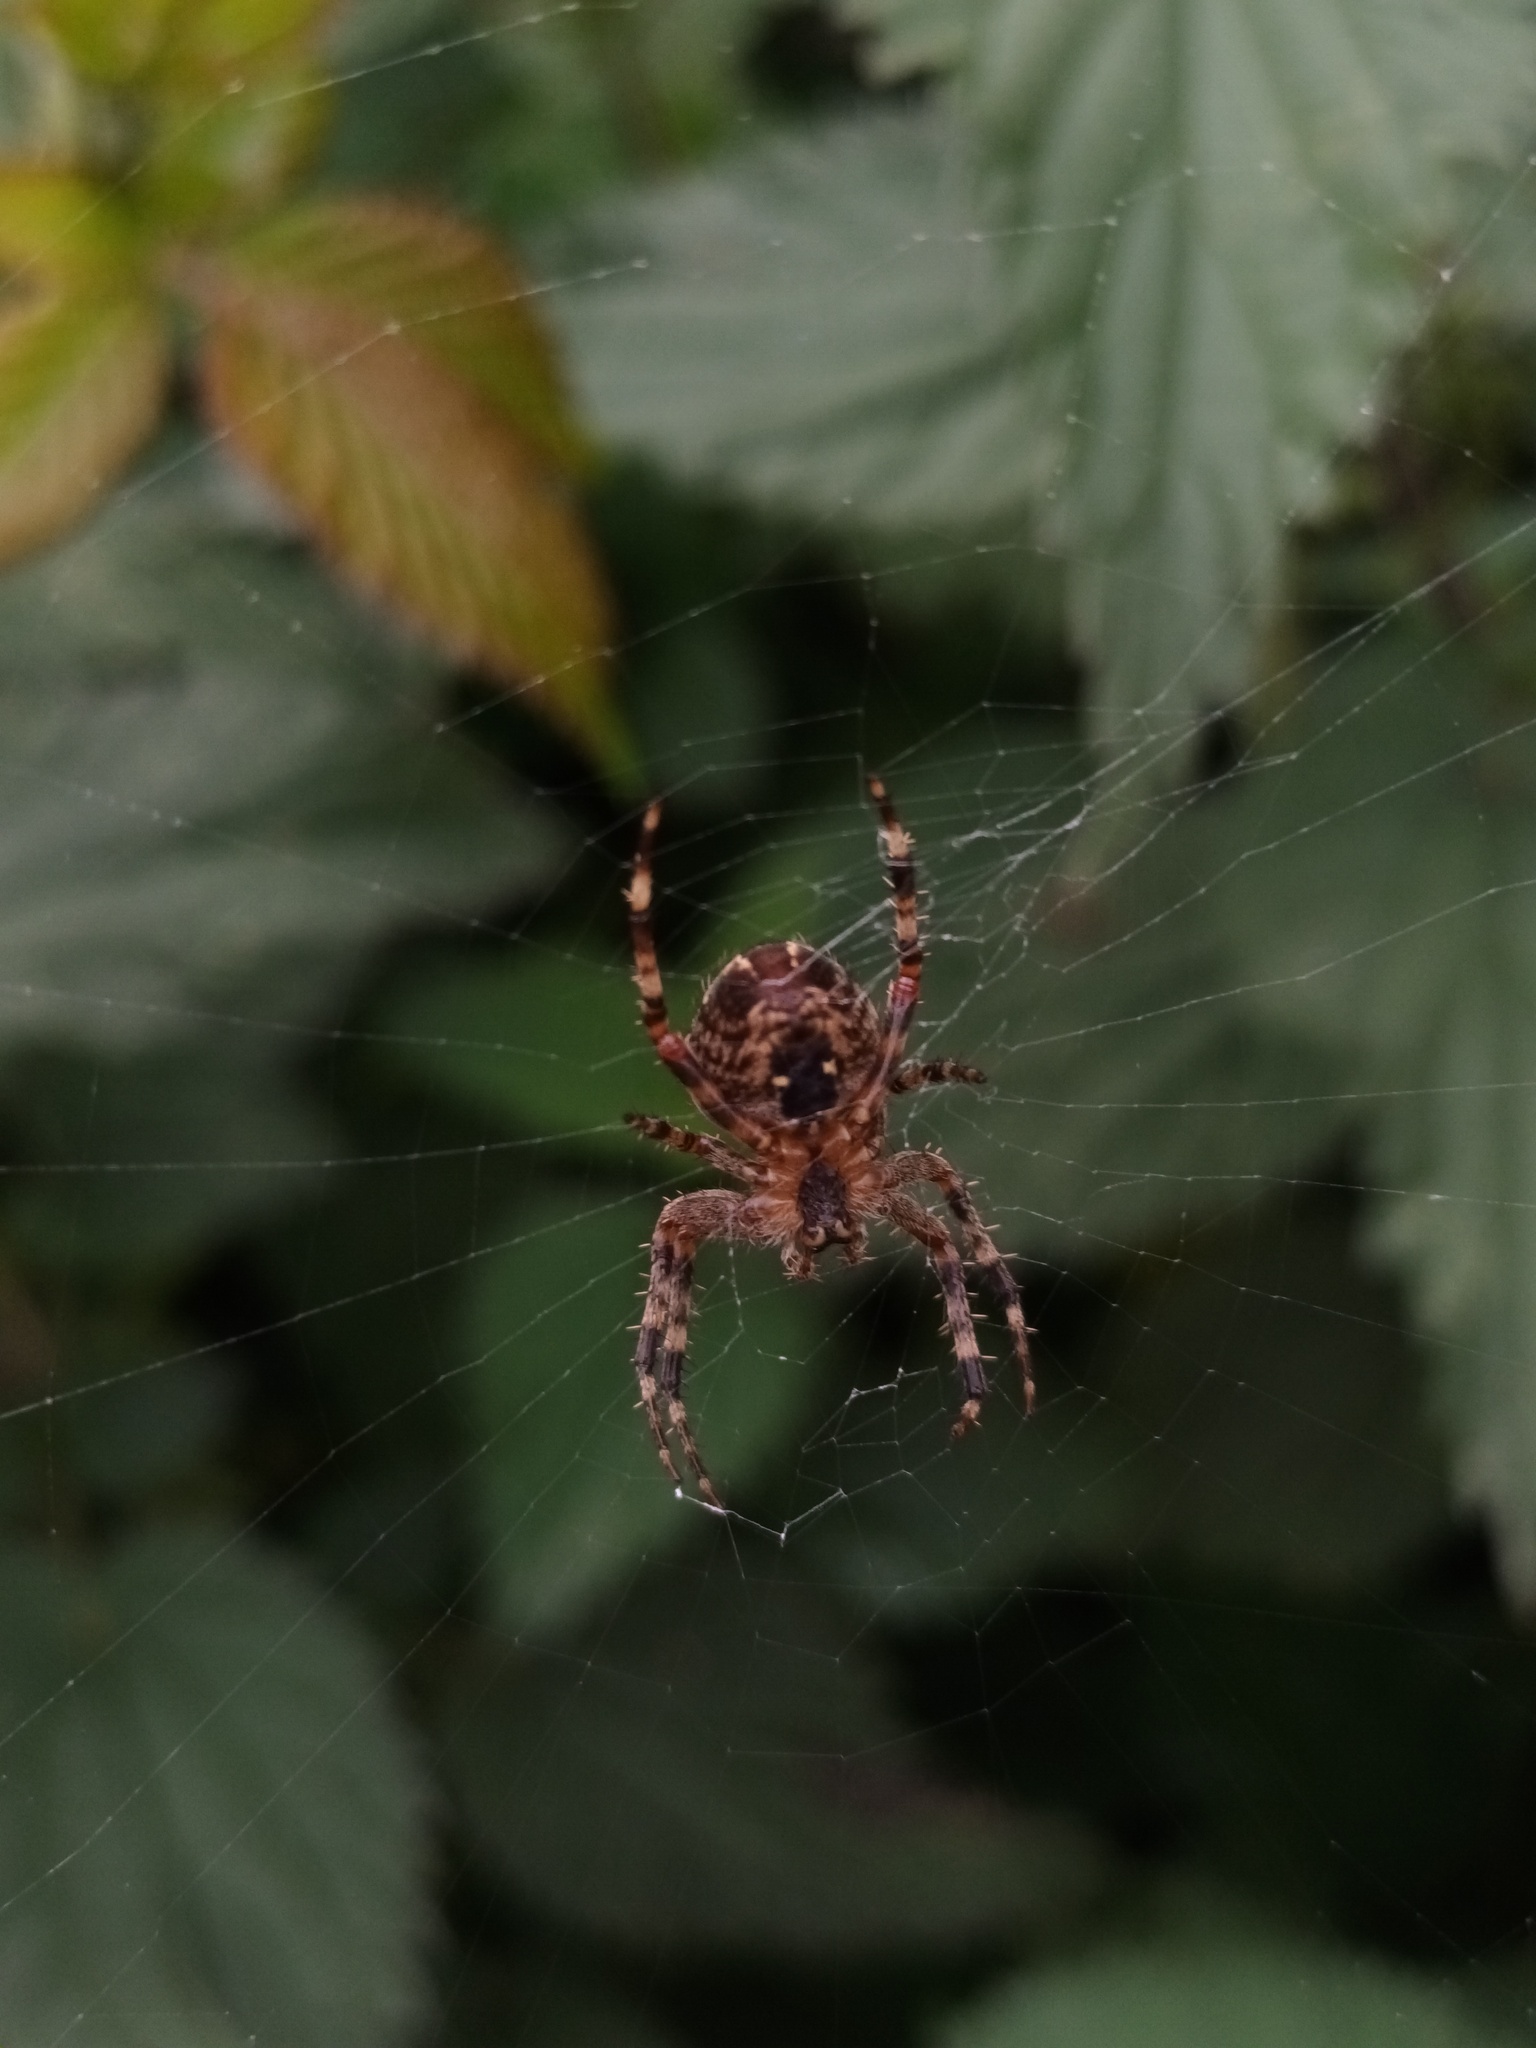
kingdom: Animalia
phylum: Arthropoda
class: Arachnida
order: Araneae
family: Araneidae
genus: Araneus
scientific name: Araneus diadematus
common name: Cross orbweaver
